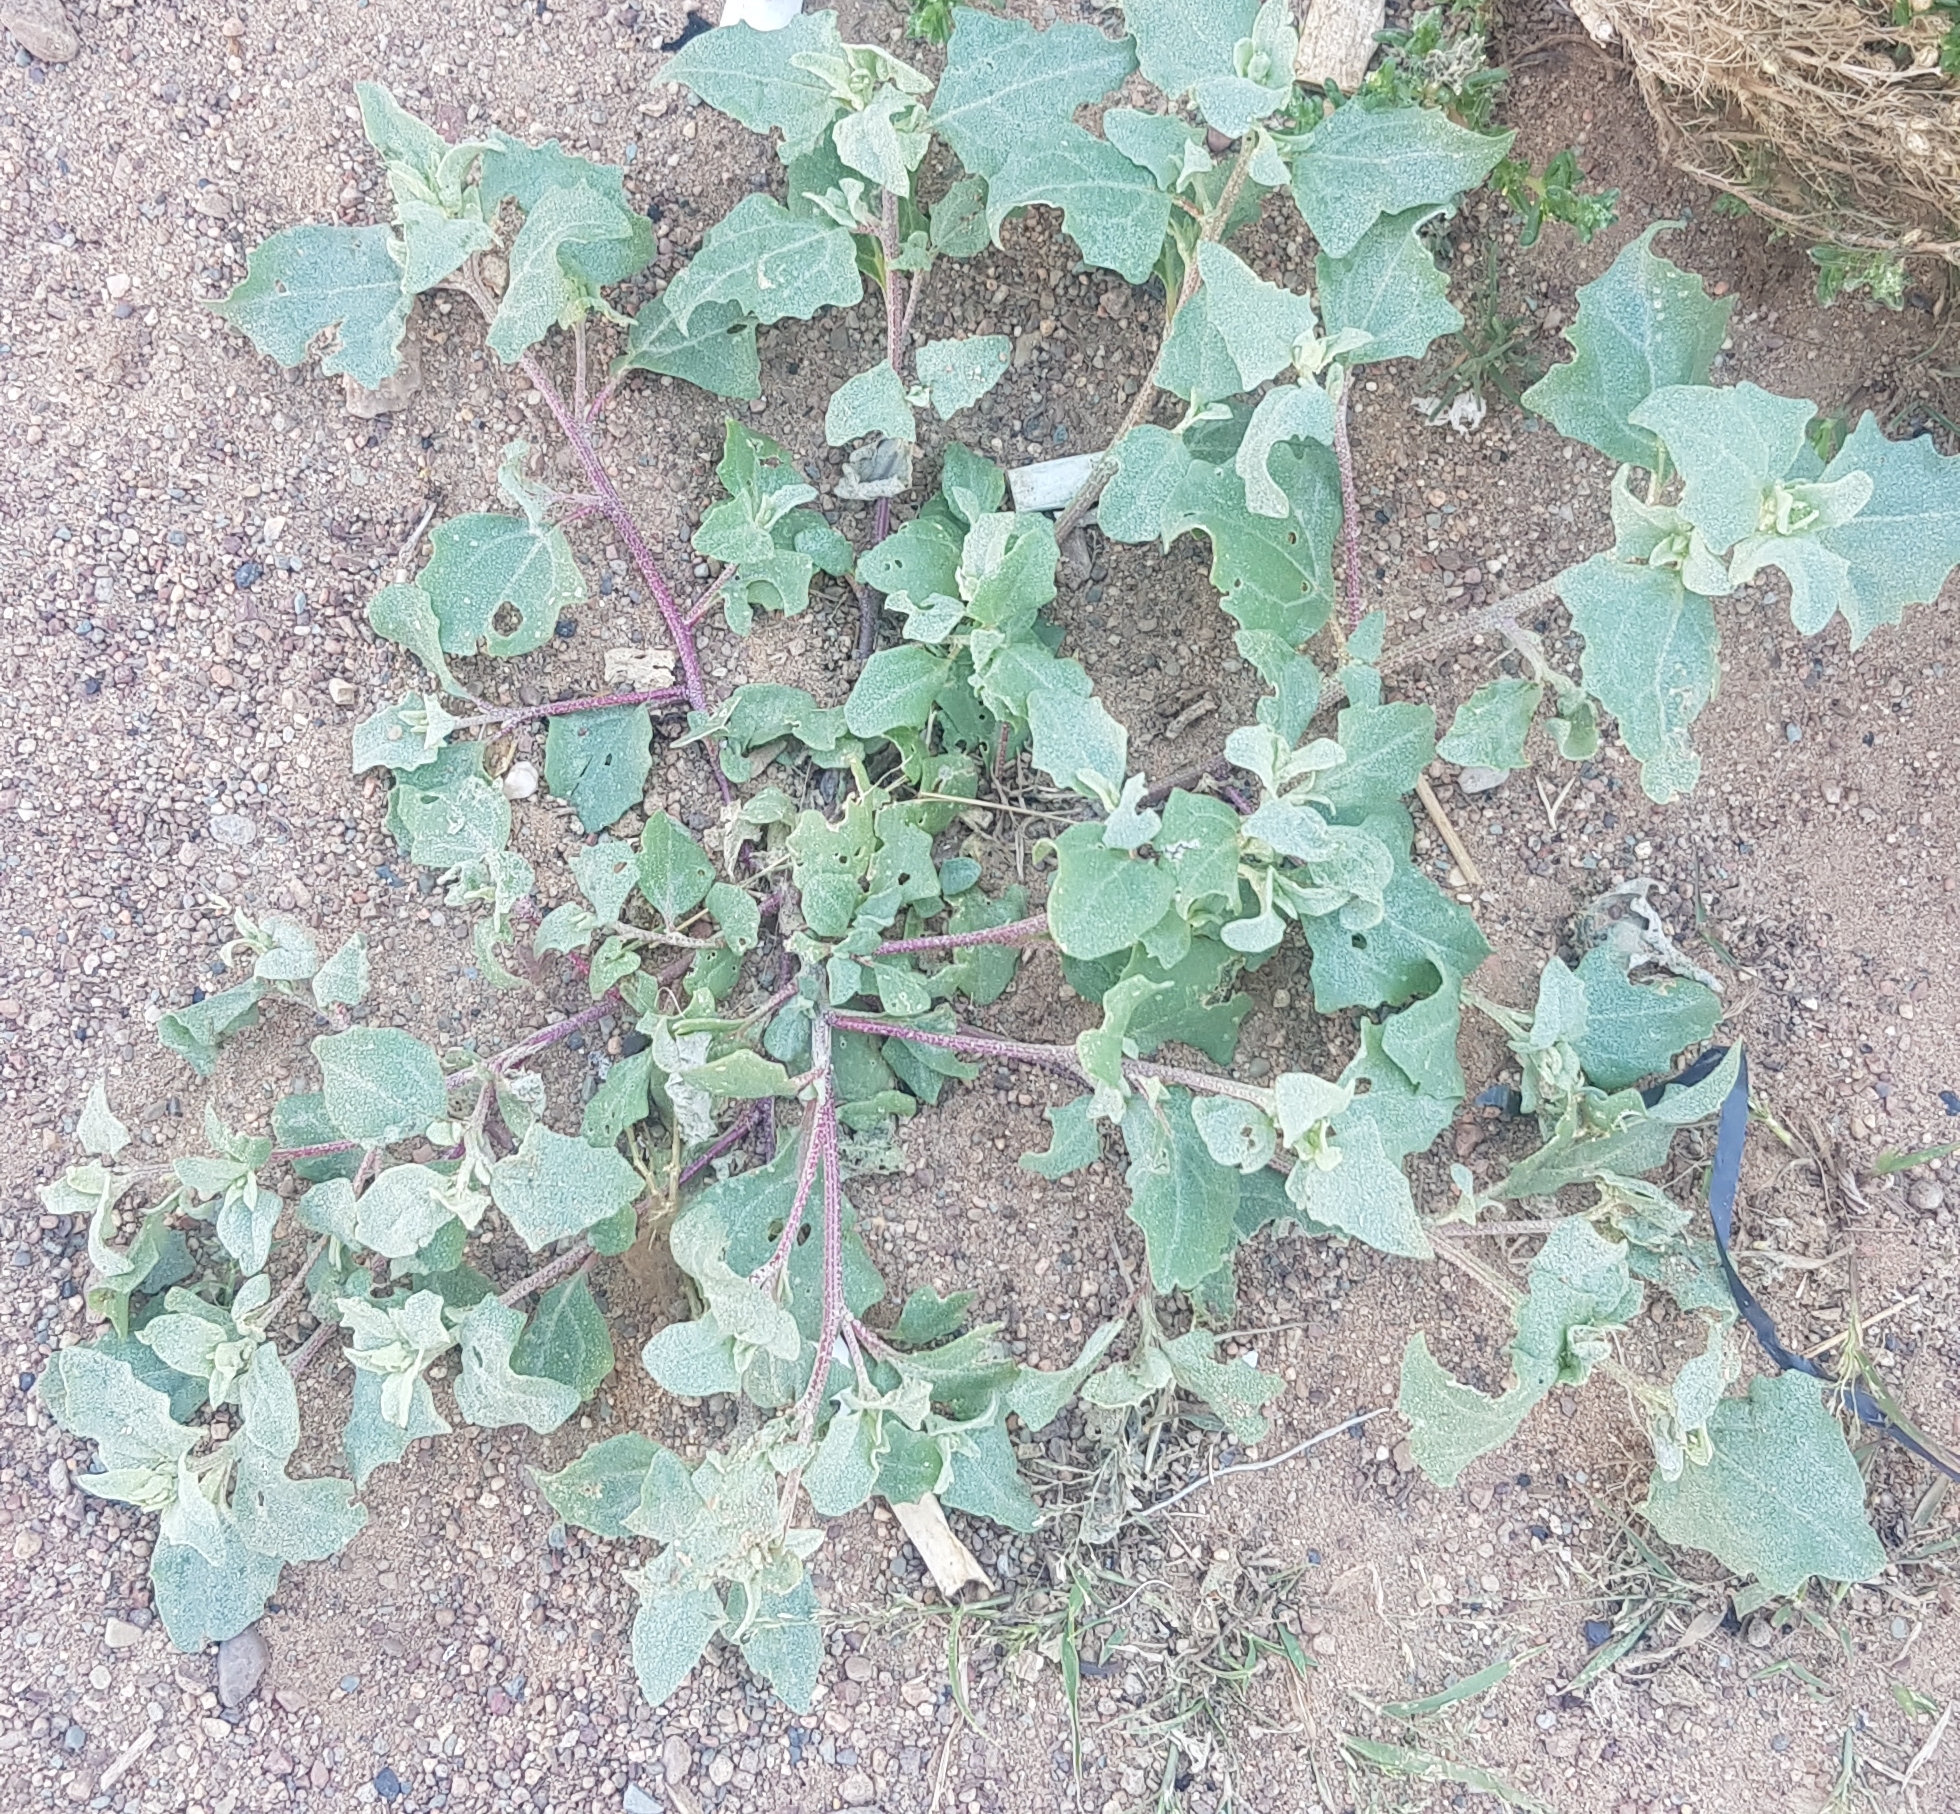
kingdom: Plantae
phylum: Tracheophyta
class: Magnoliopsida
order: Caryophyllales
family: Amaranthaceae
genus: Atriplex
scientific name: Atriplex sibirica
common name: Siberian saltbush
